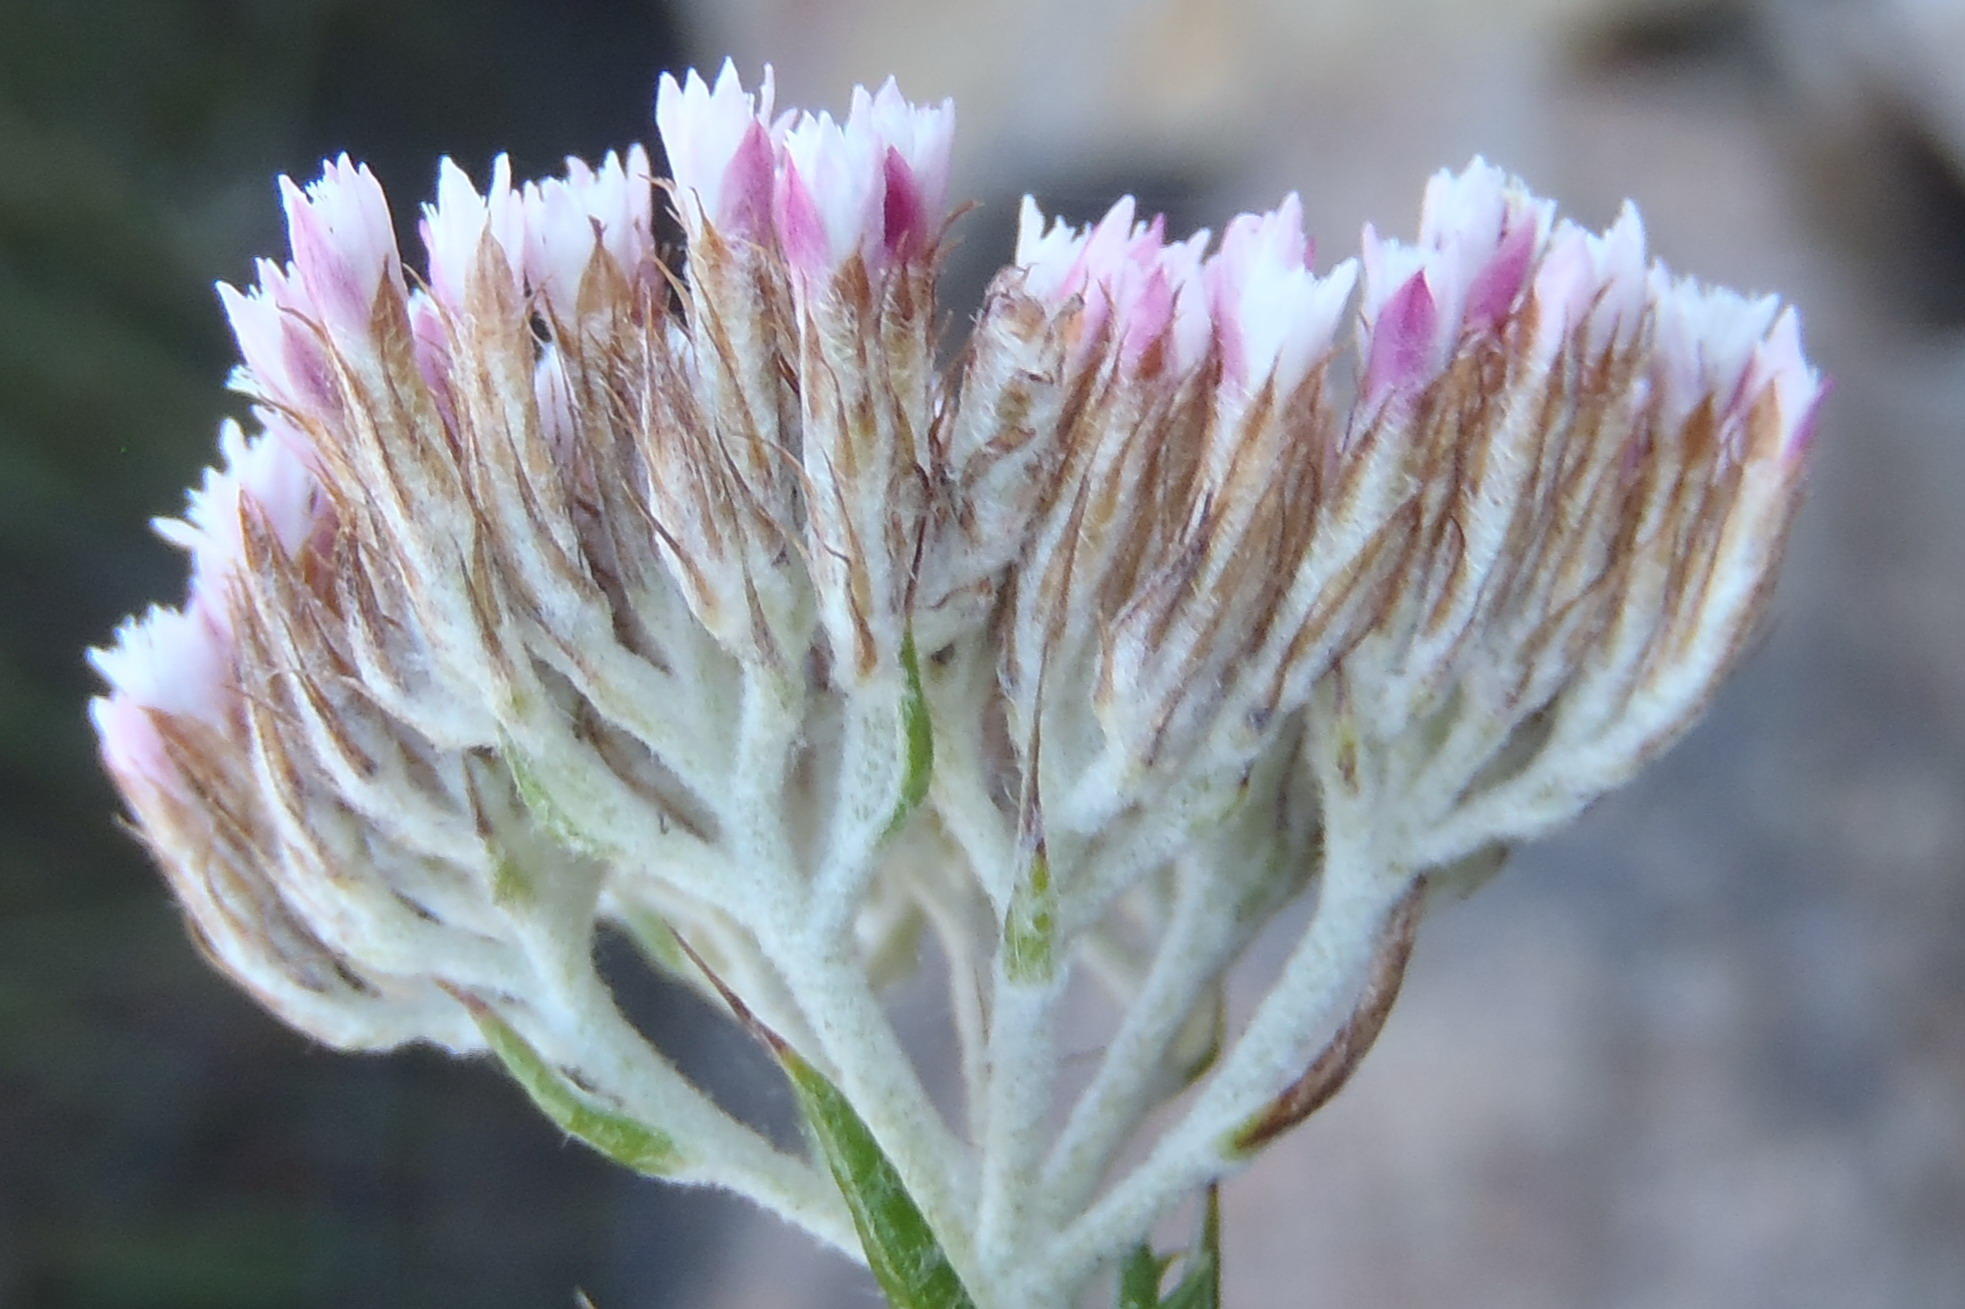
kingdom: Plantae
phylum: Tracheophyta
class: Magnoliopsida
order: Asterales
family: Asteraceae
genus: Metalasia
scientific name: Metalasia pungens
